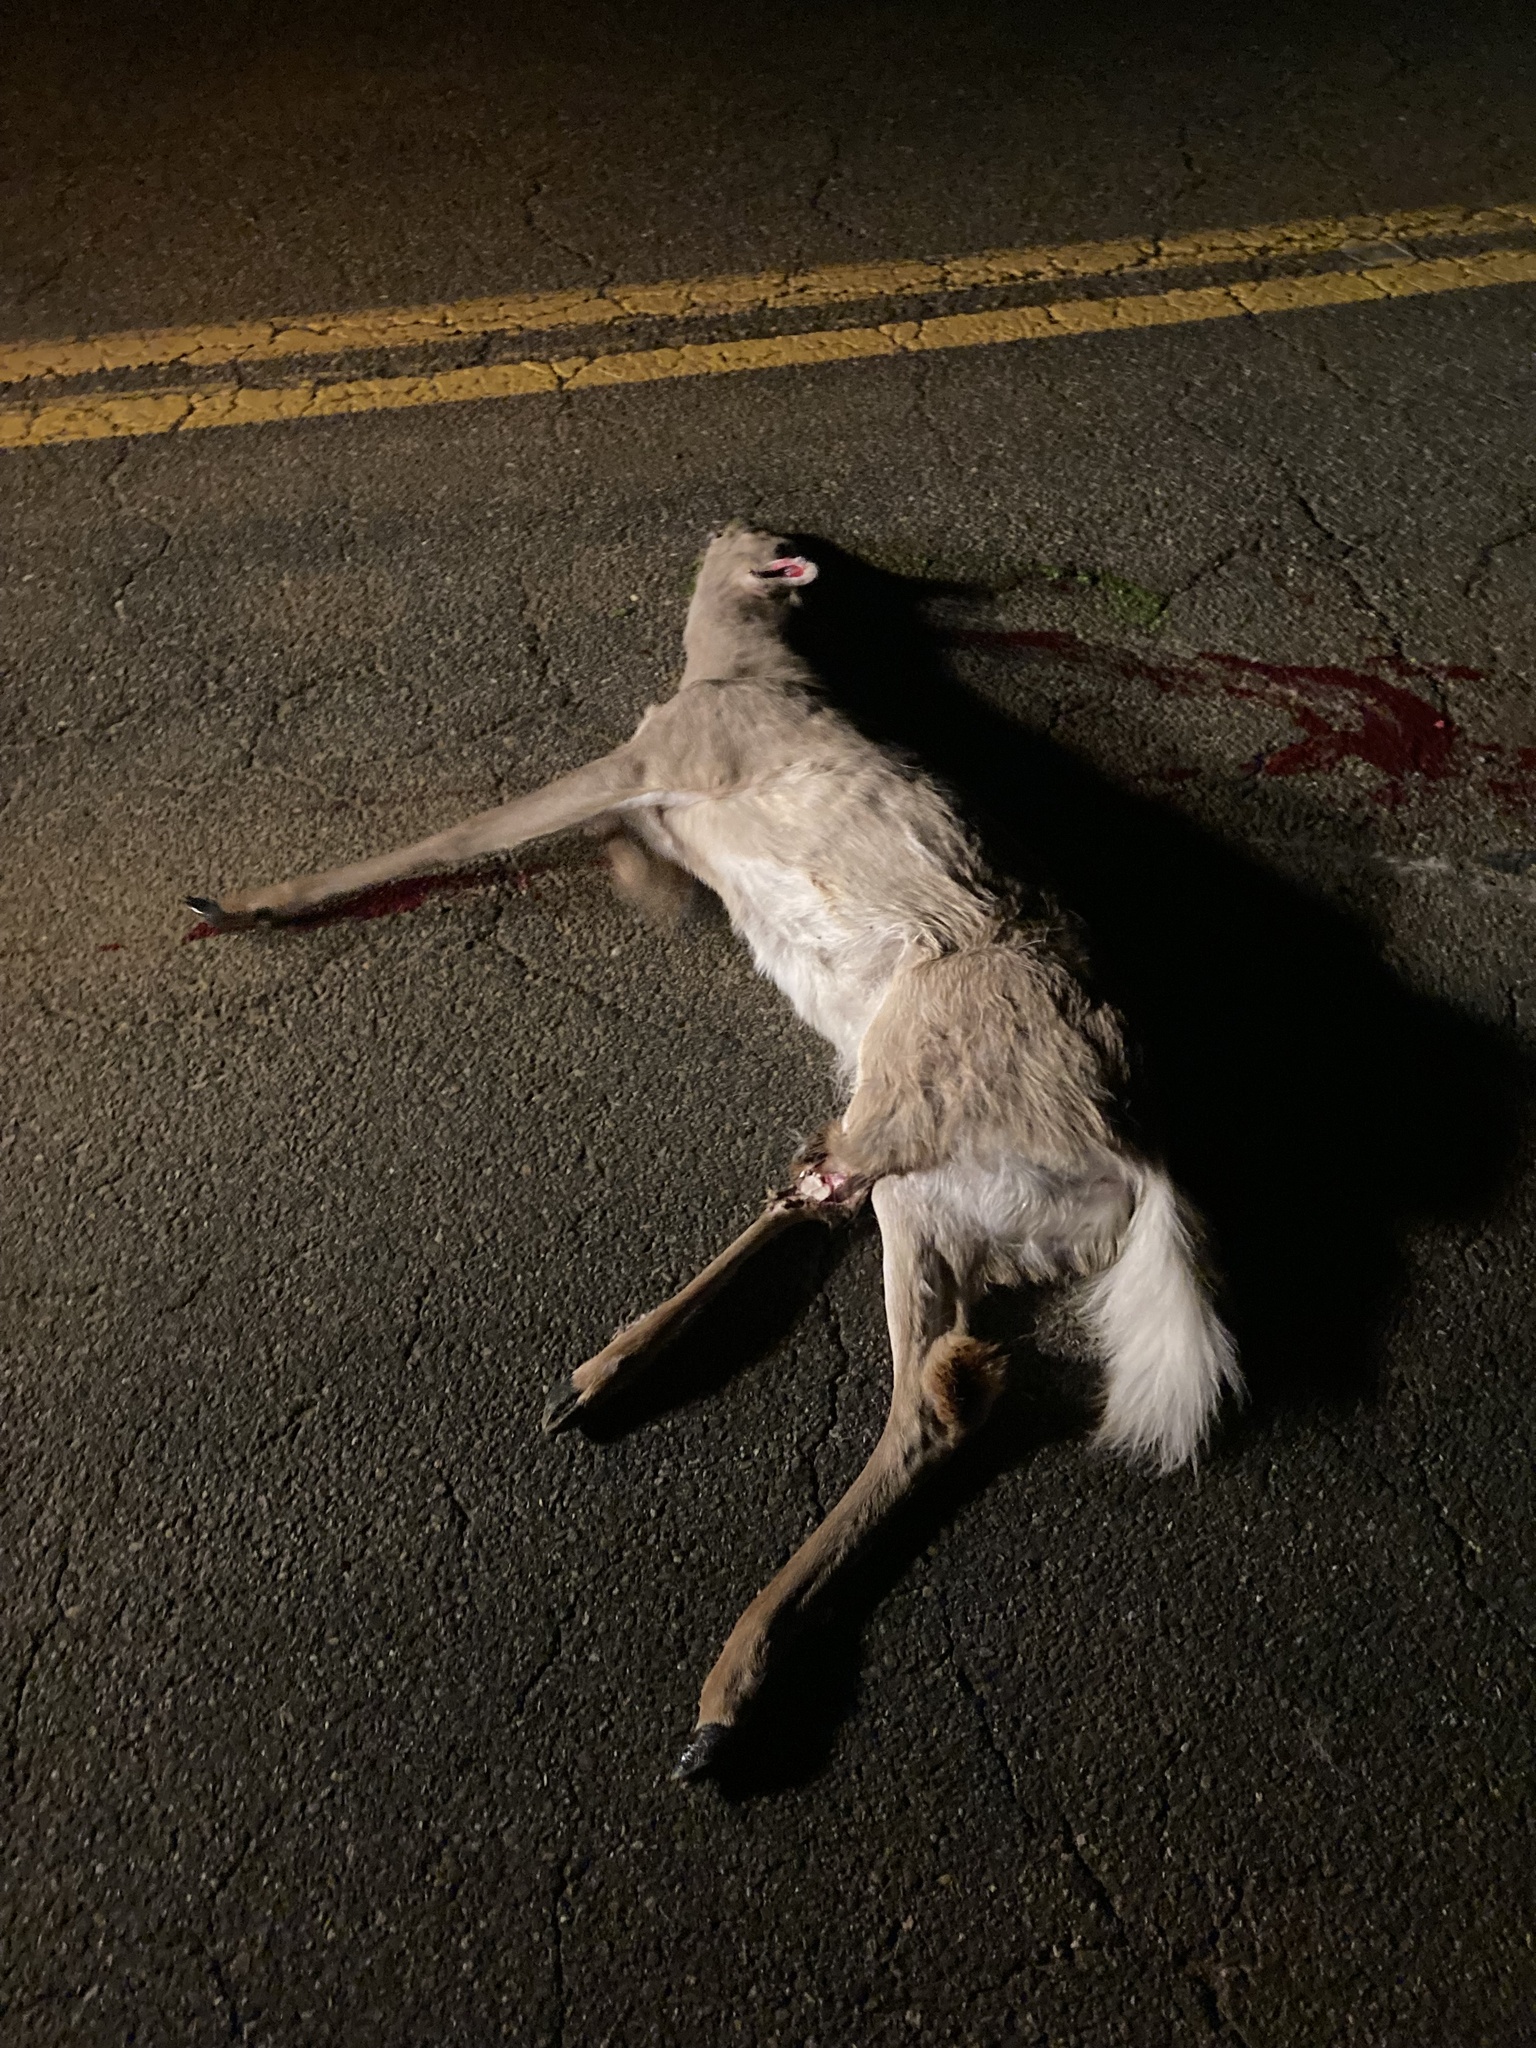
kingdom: Animalia
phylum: Chordata
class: Mammalia
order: Artiodactyla
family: Cervidae
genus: Odocoileus
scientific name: Odocoileus virginianus
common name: White-tailed deer
